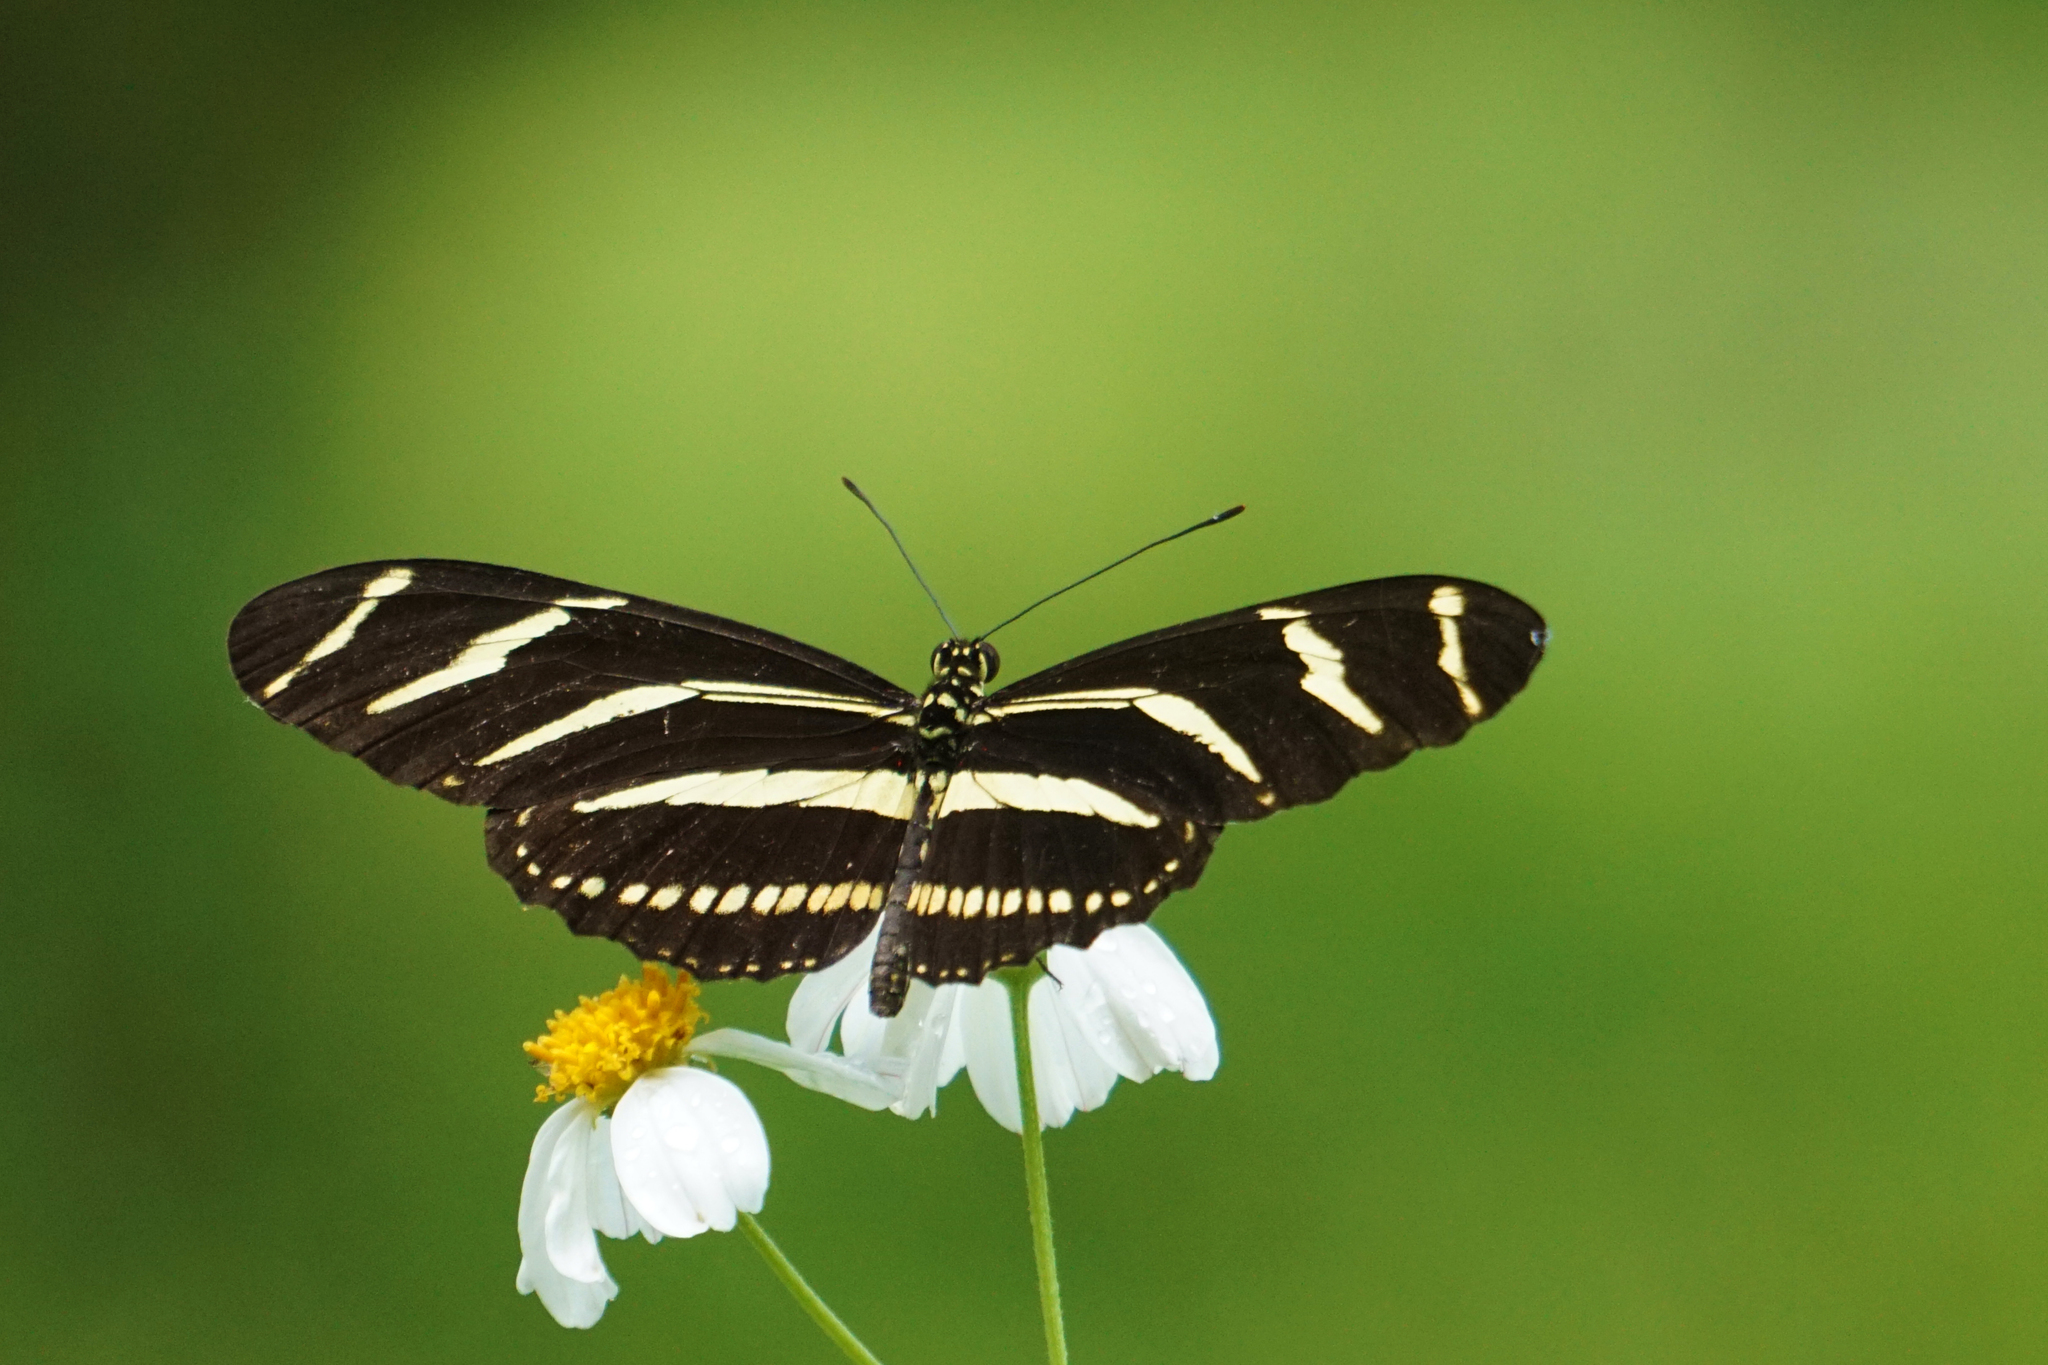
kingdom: Animalia
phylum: Arthropoda
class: Insecta
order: Lepidoptera
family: Nymphalidae
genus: Heliconius
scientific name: Heliconius charithonia
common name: Zebra long wing
